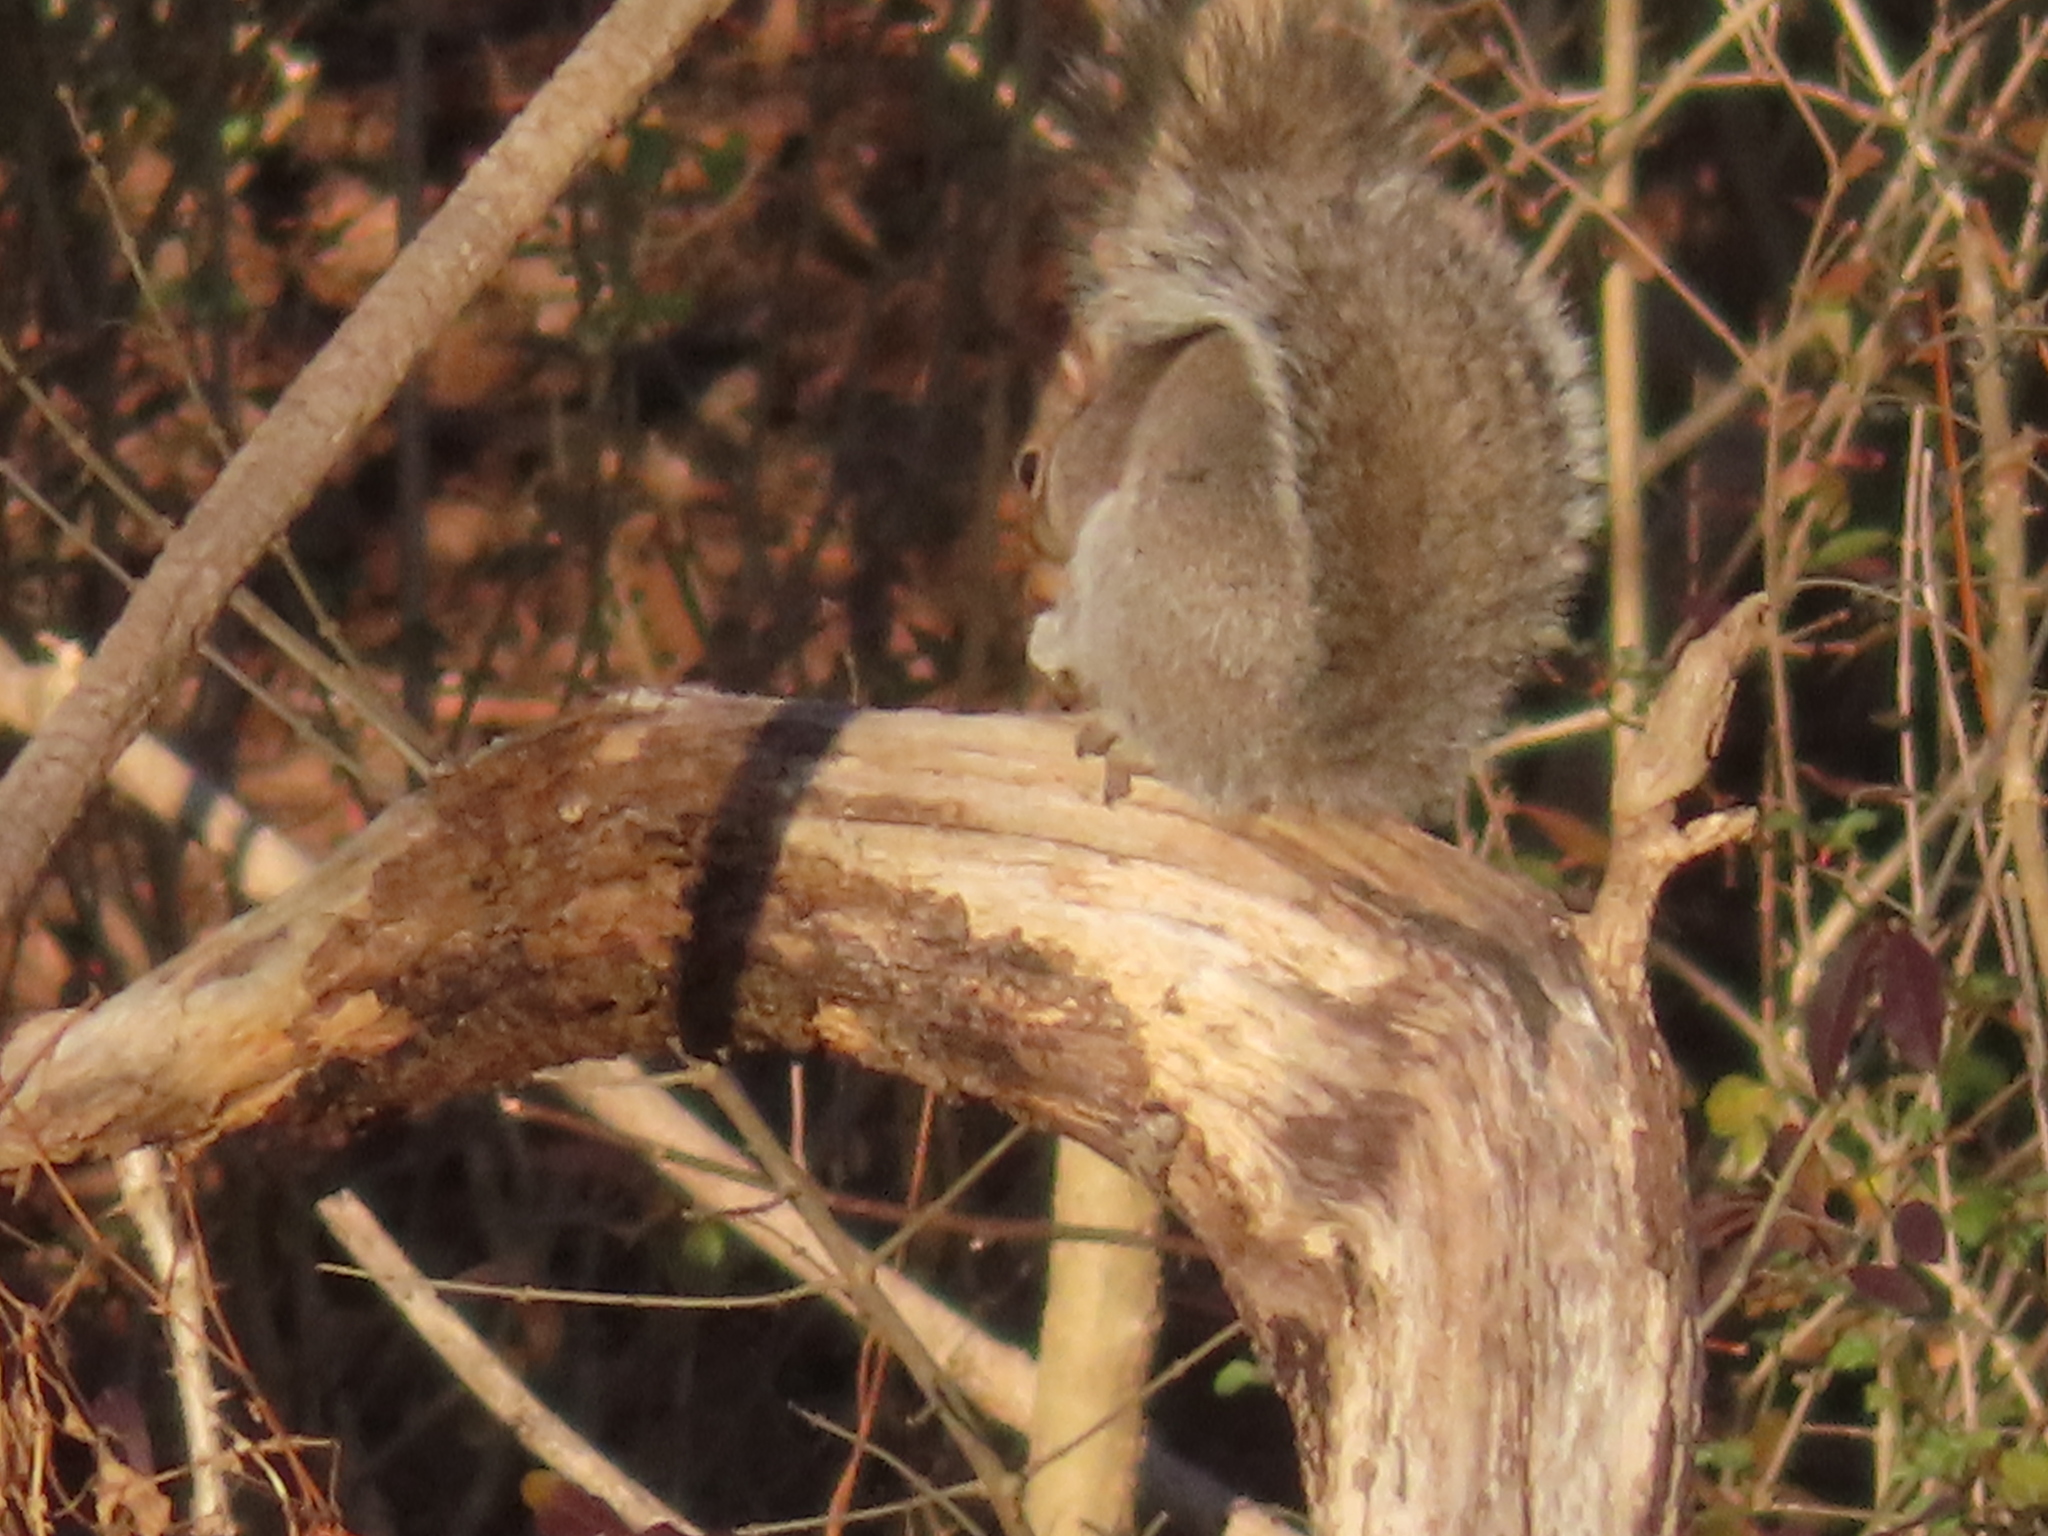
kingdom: Animalia
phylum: Chordata
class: Mammalia
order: Rodentia
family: Sciuridae
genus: Sciurus
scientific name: Sciurus carolinensis
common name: Eastern gray squirrel
